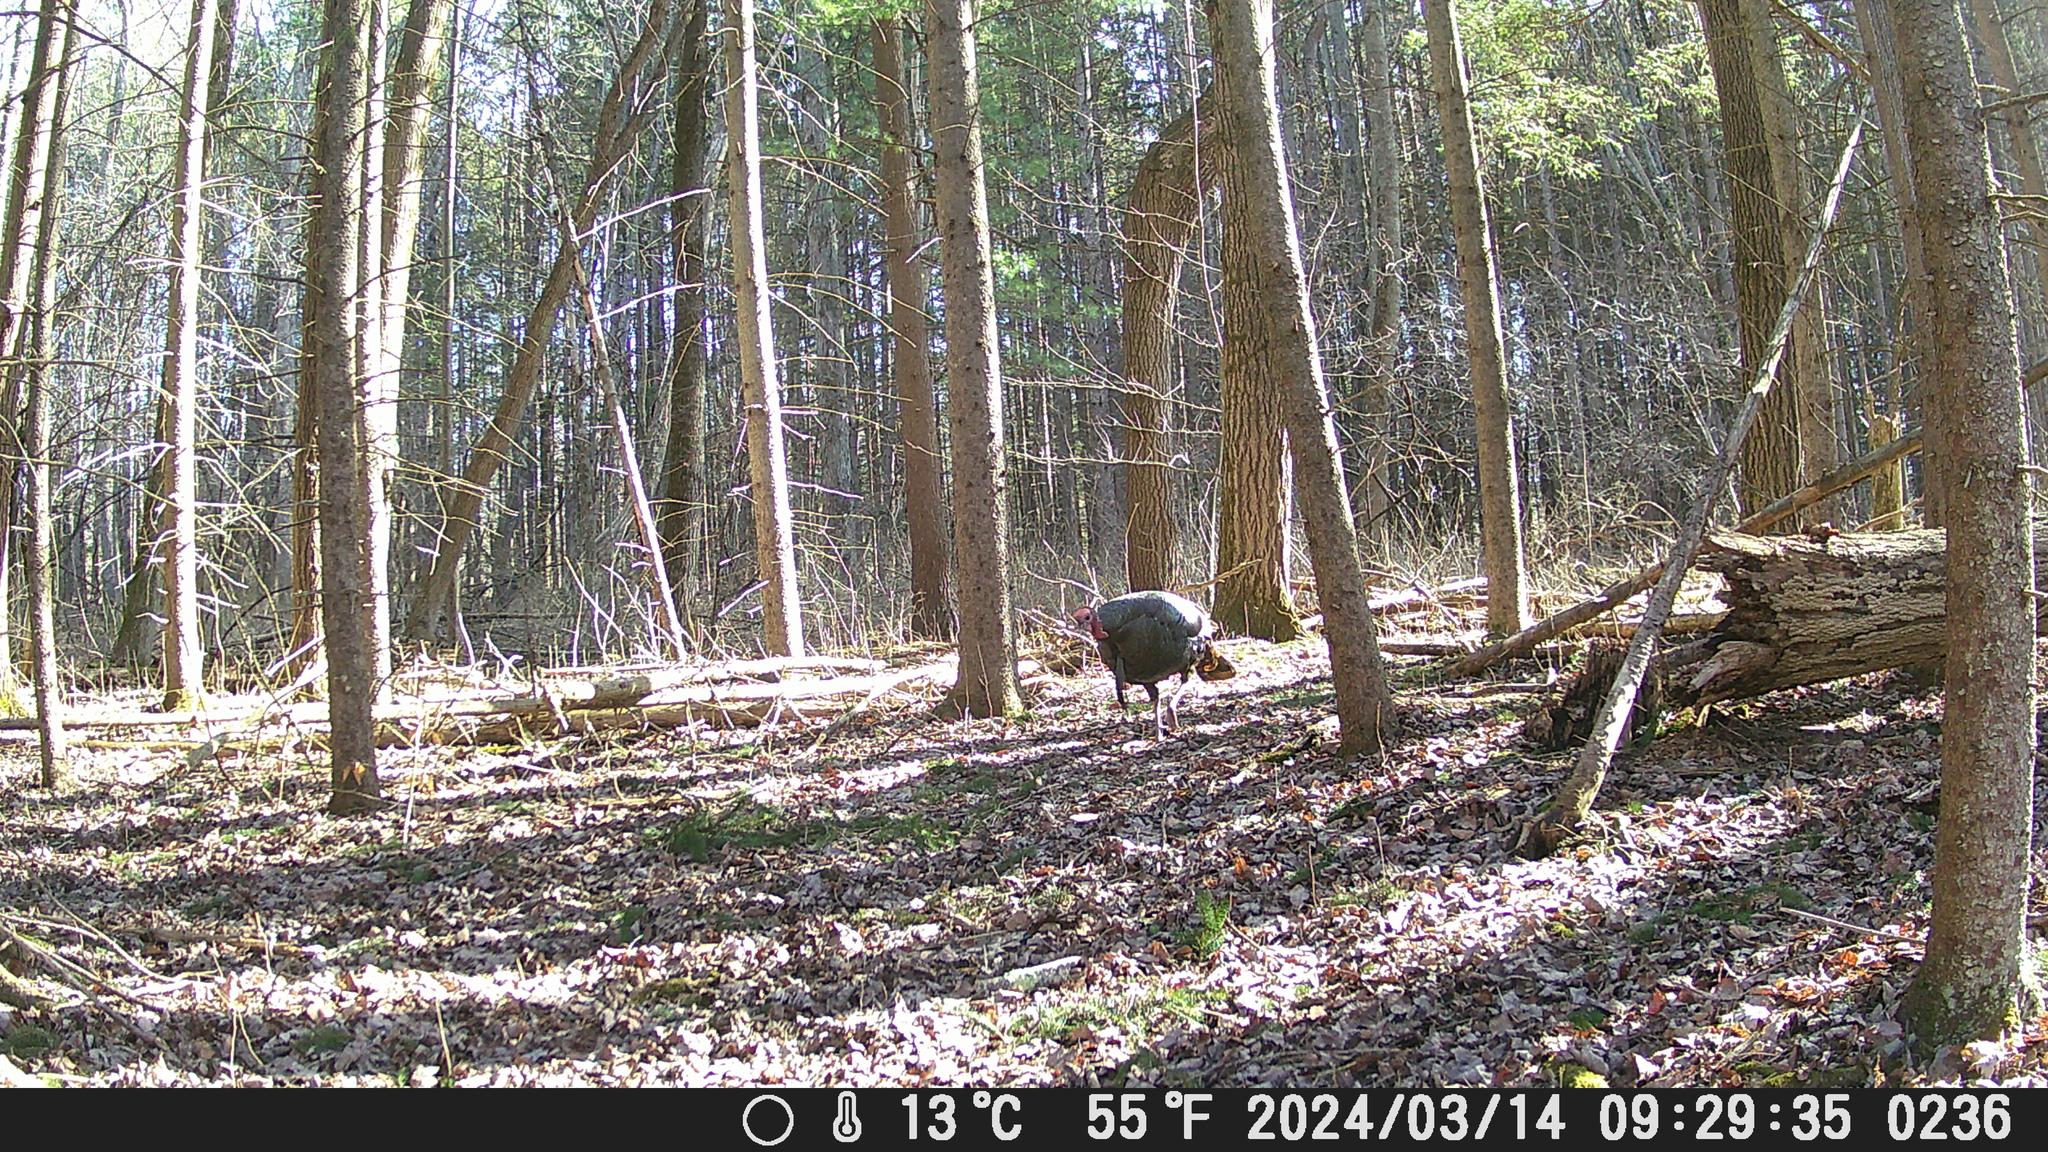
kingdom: Animalia
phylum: Chordata
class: Aves
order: Galliformes
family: Phasianidae
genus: Meleagris
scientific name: Meleagris gallopavo
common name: Wild turkey
